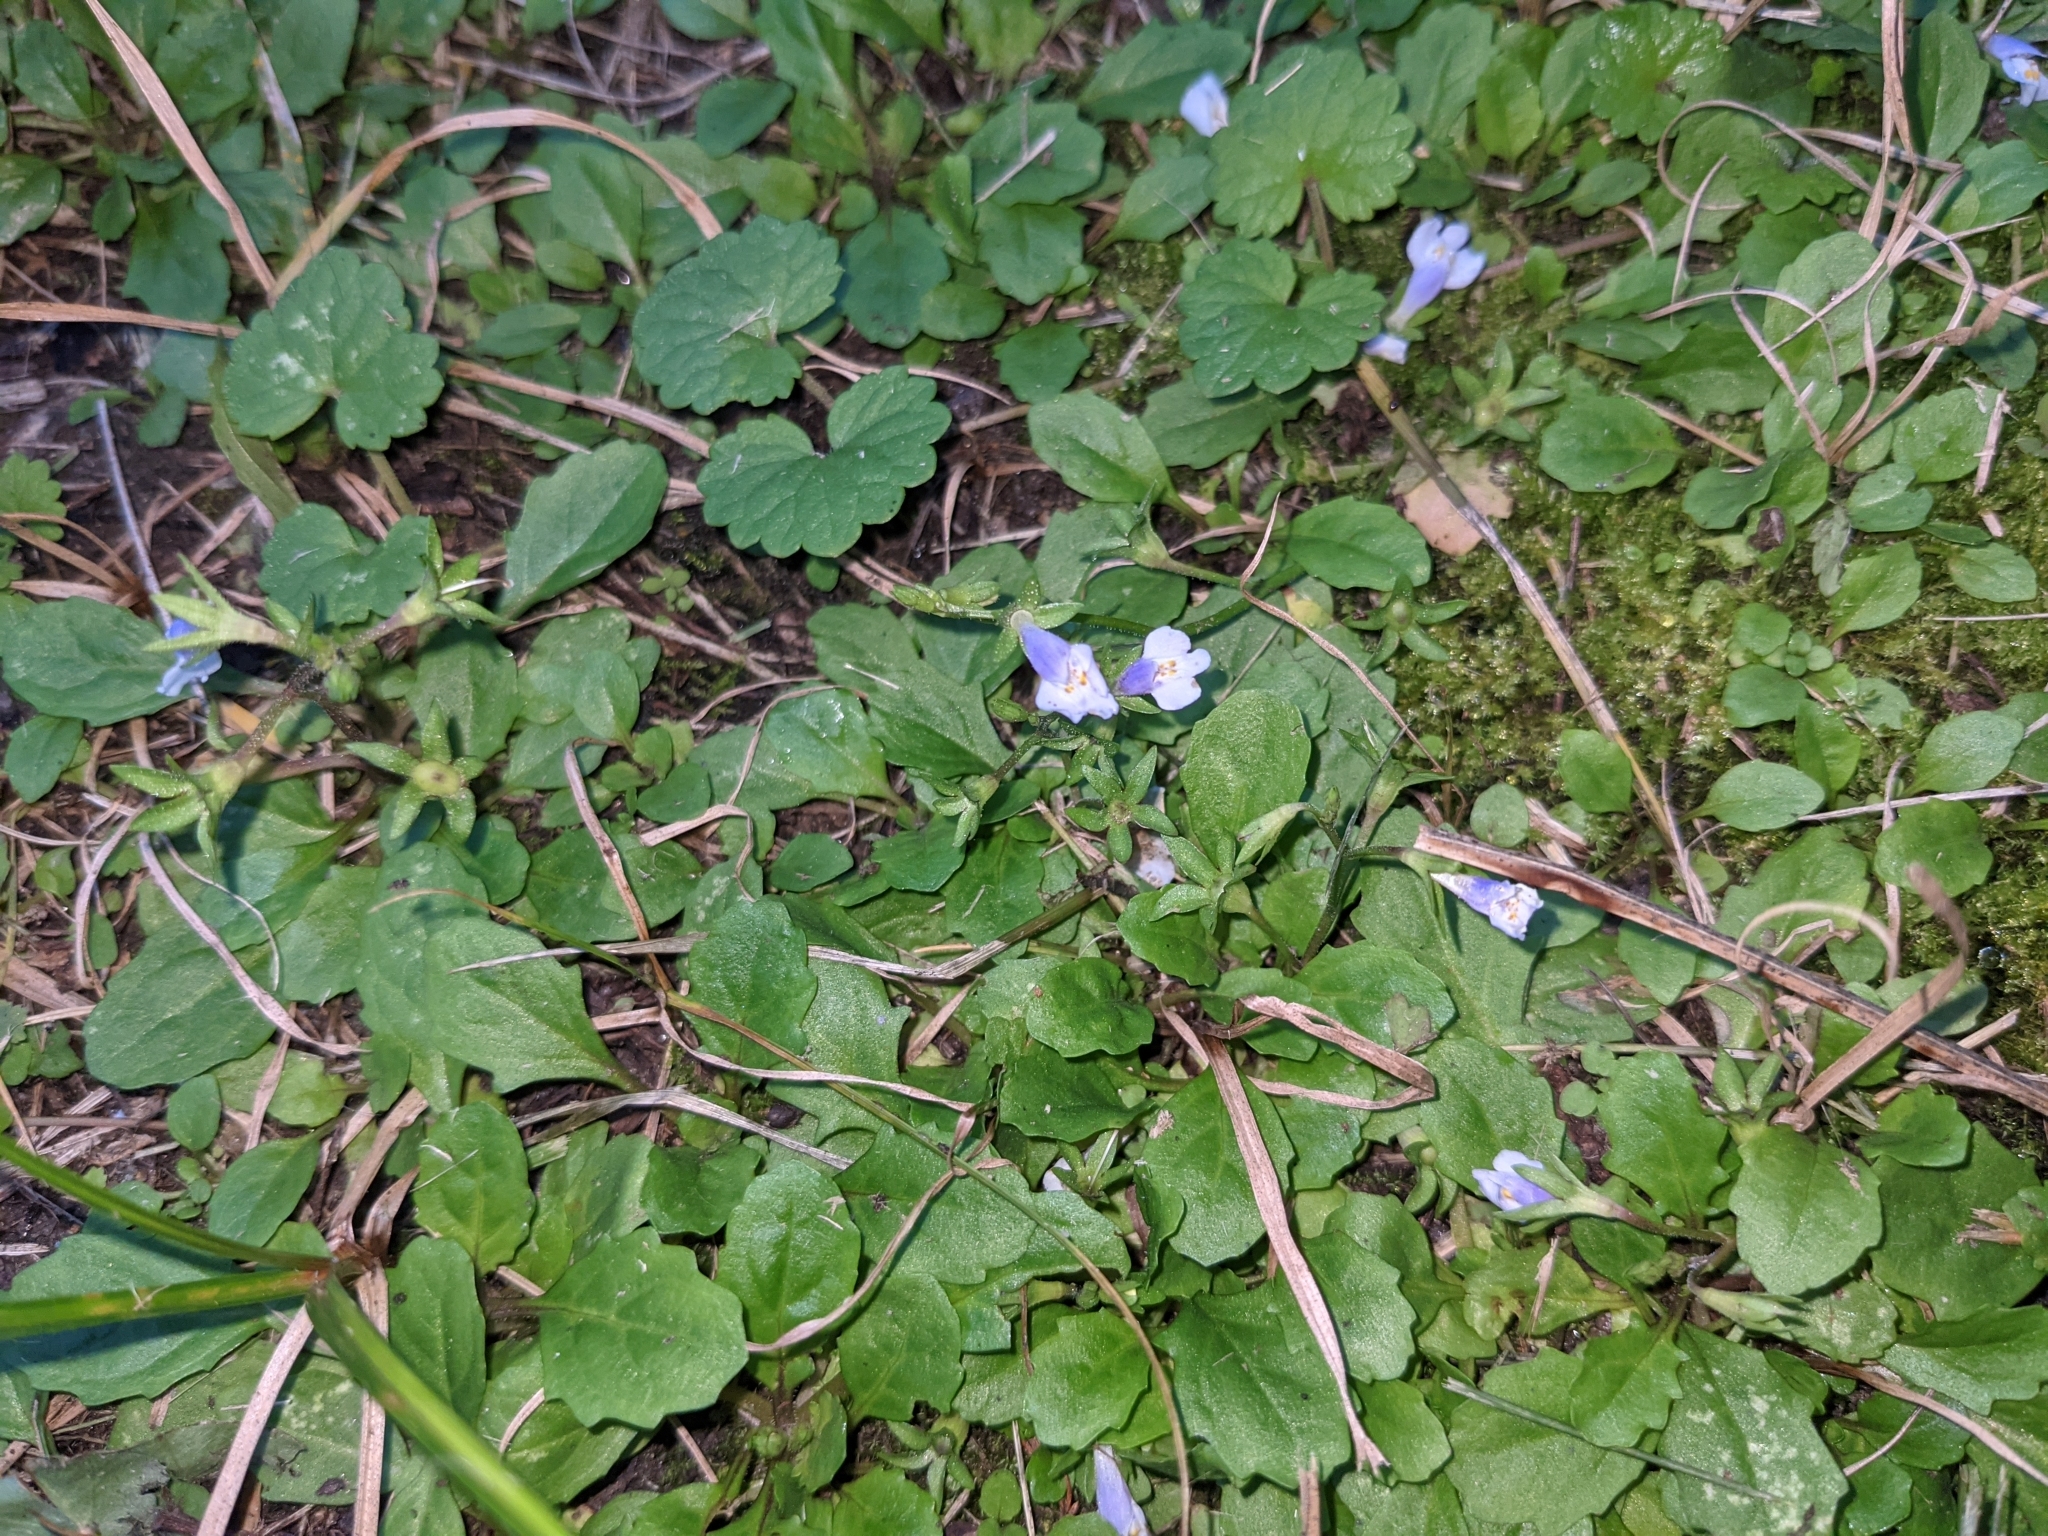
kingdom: Plantae
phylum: Tracheophyta
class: Magnoliopsida
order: Lamiales
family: Mazaceae
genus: Mazus
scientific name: Mazus pumilus
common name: Japanese mazus
